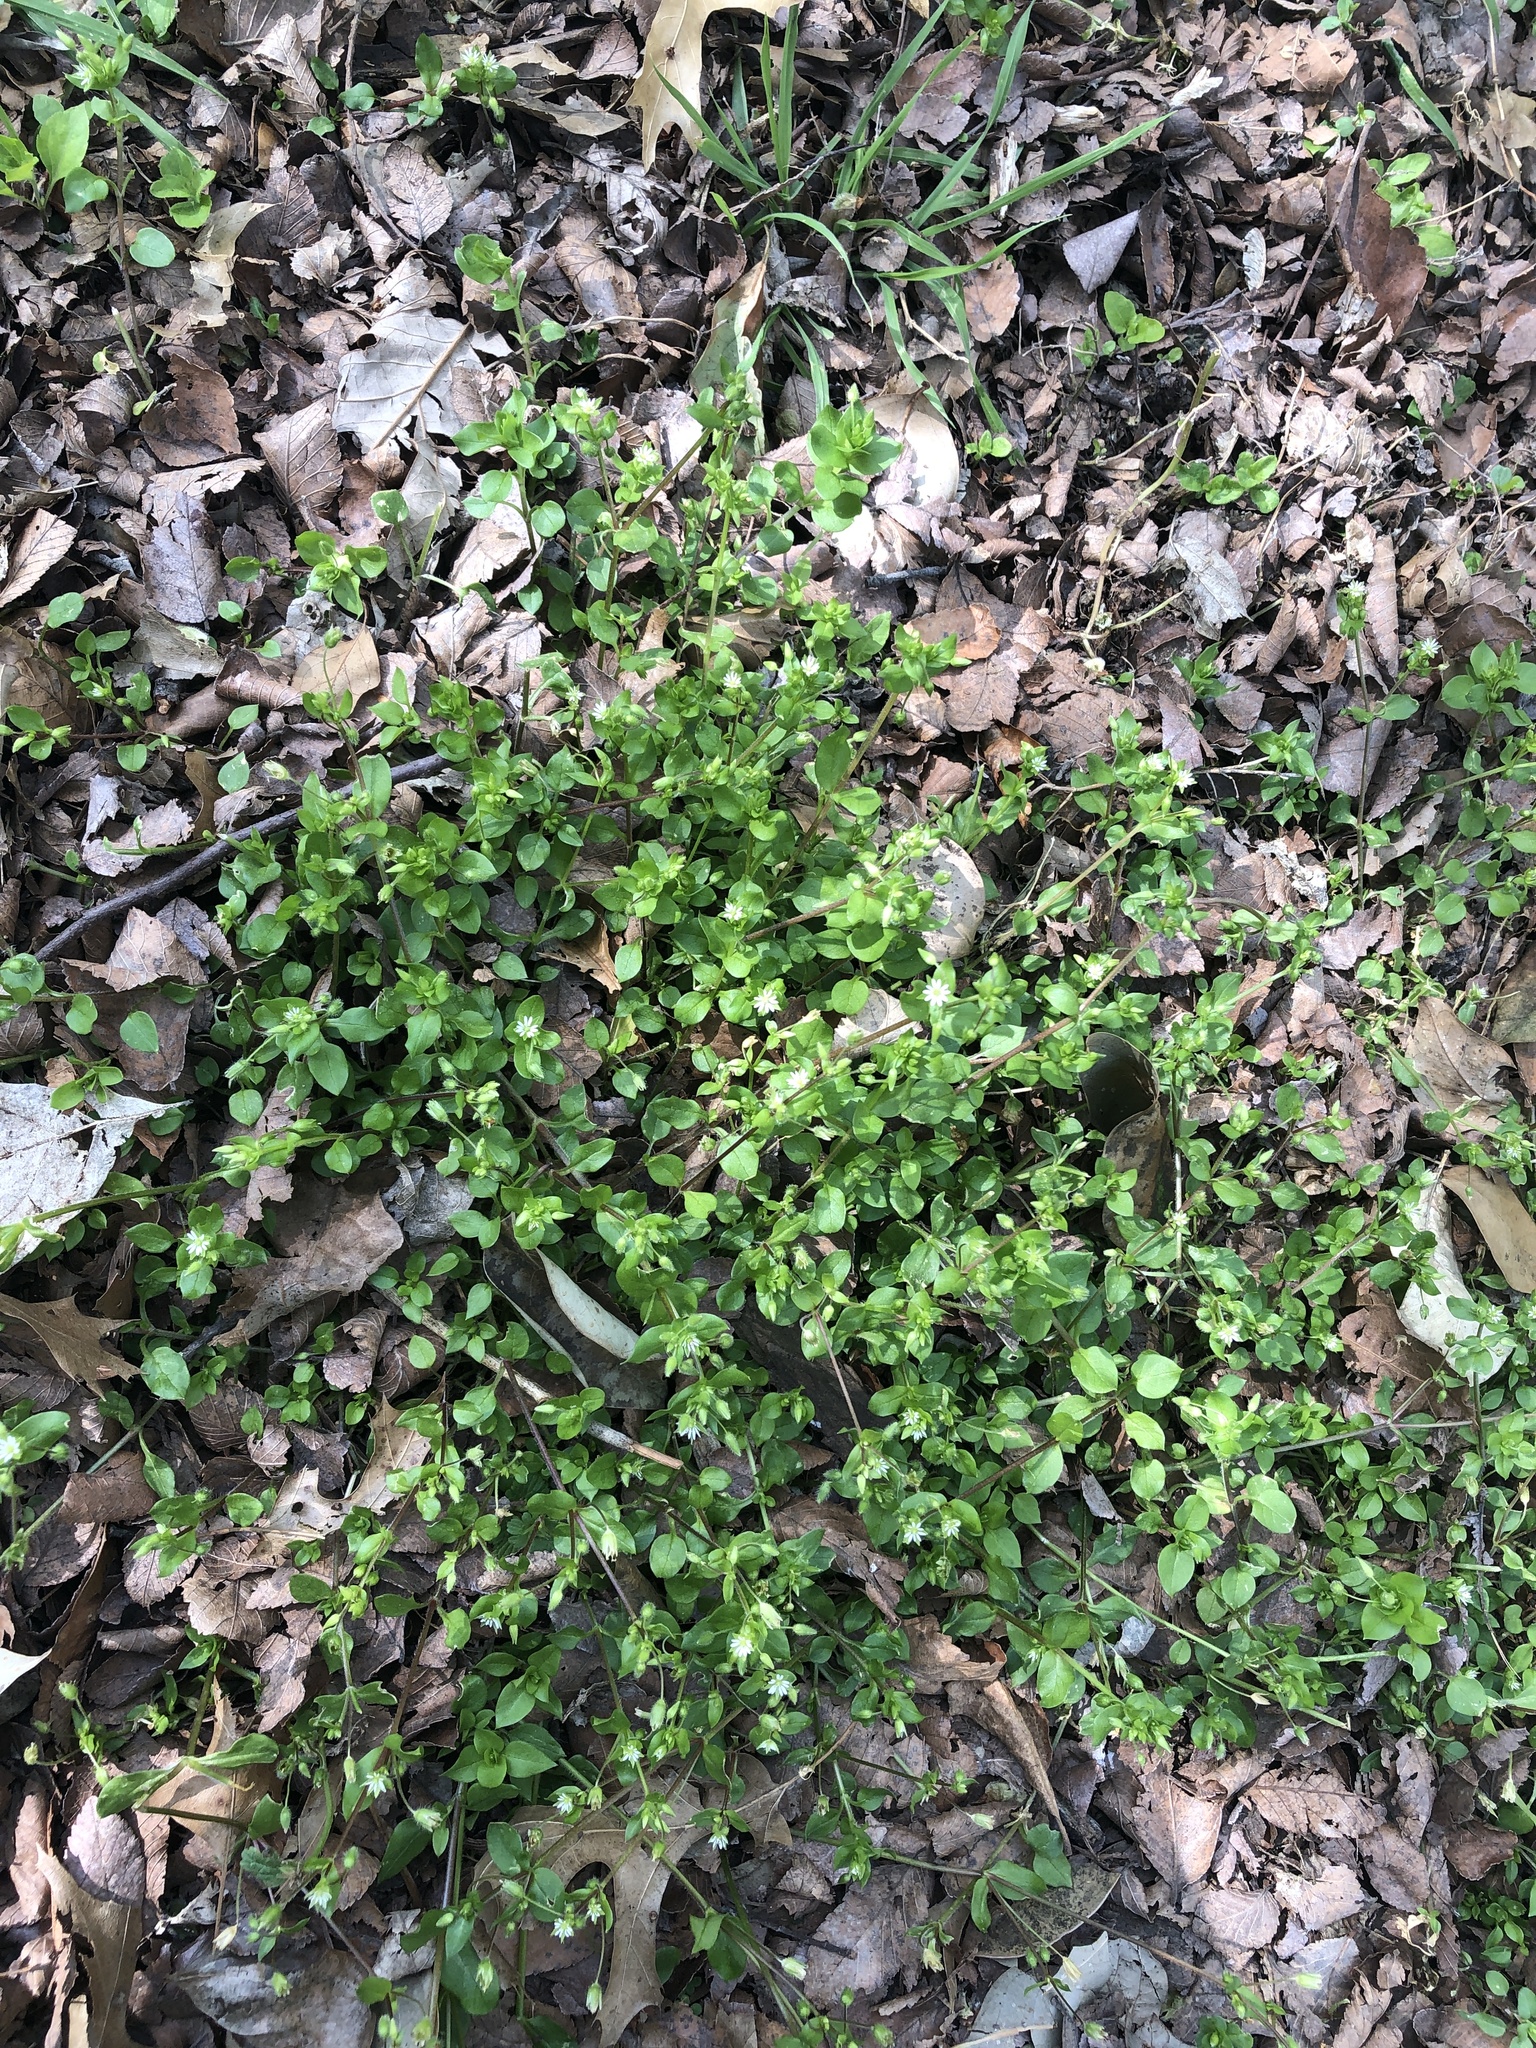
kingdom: Plantae
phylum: Tracheophyta
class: Magnoliopsida
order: Caryophyllales
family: Caryophyllaceae
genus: Stellaria
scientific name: Stellaria media
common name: Common chickweed
